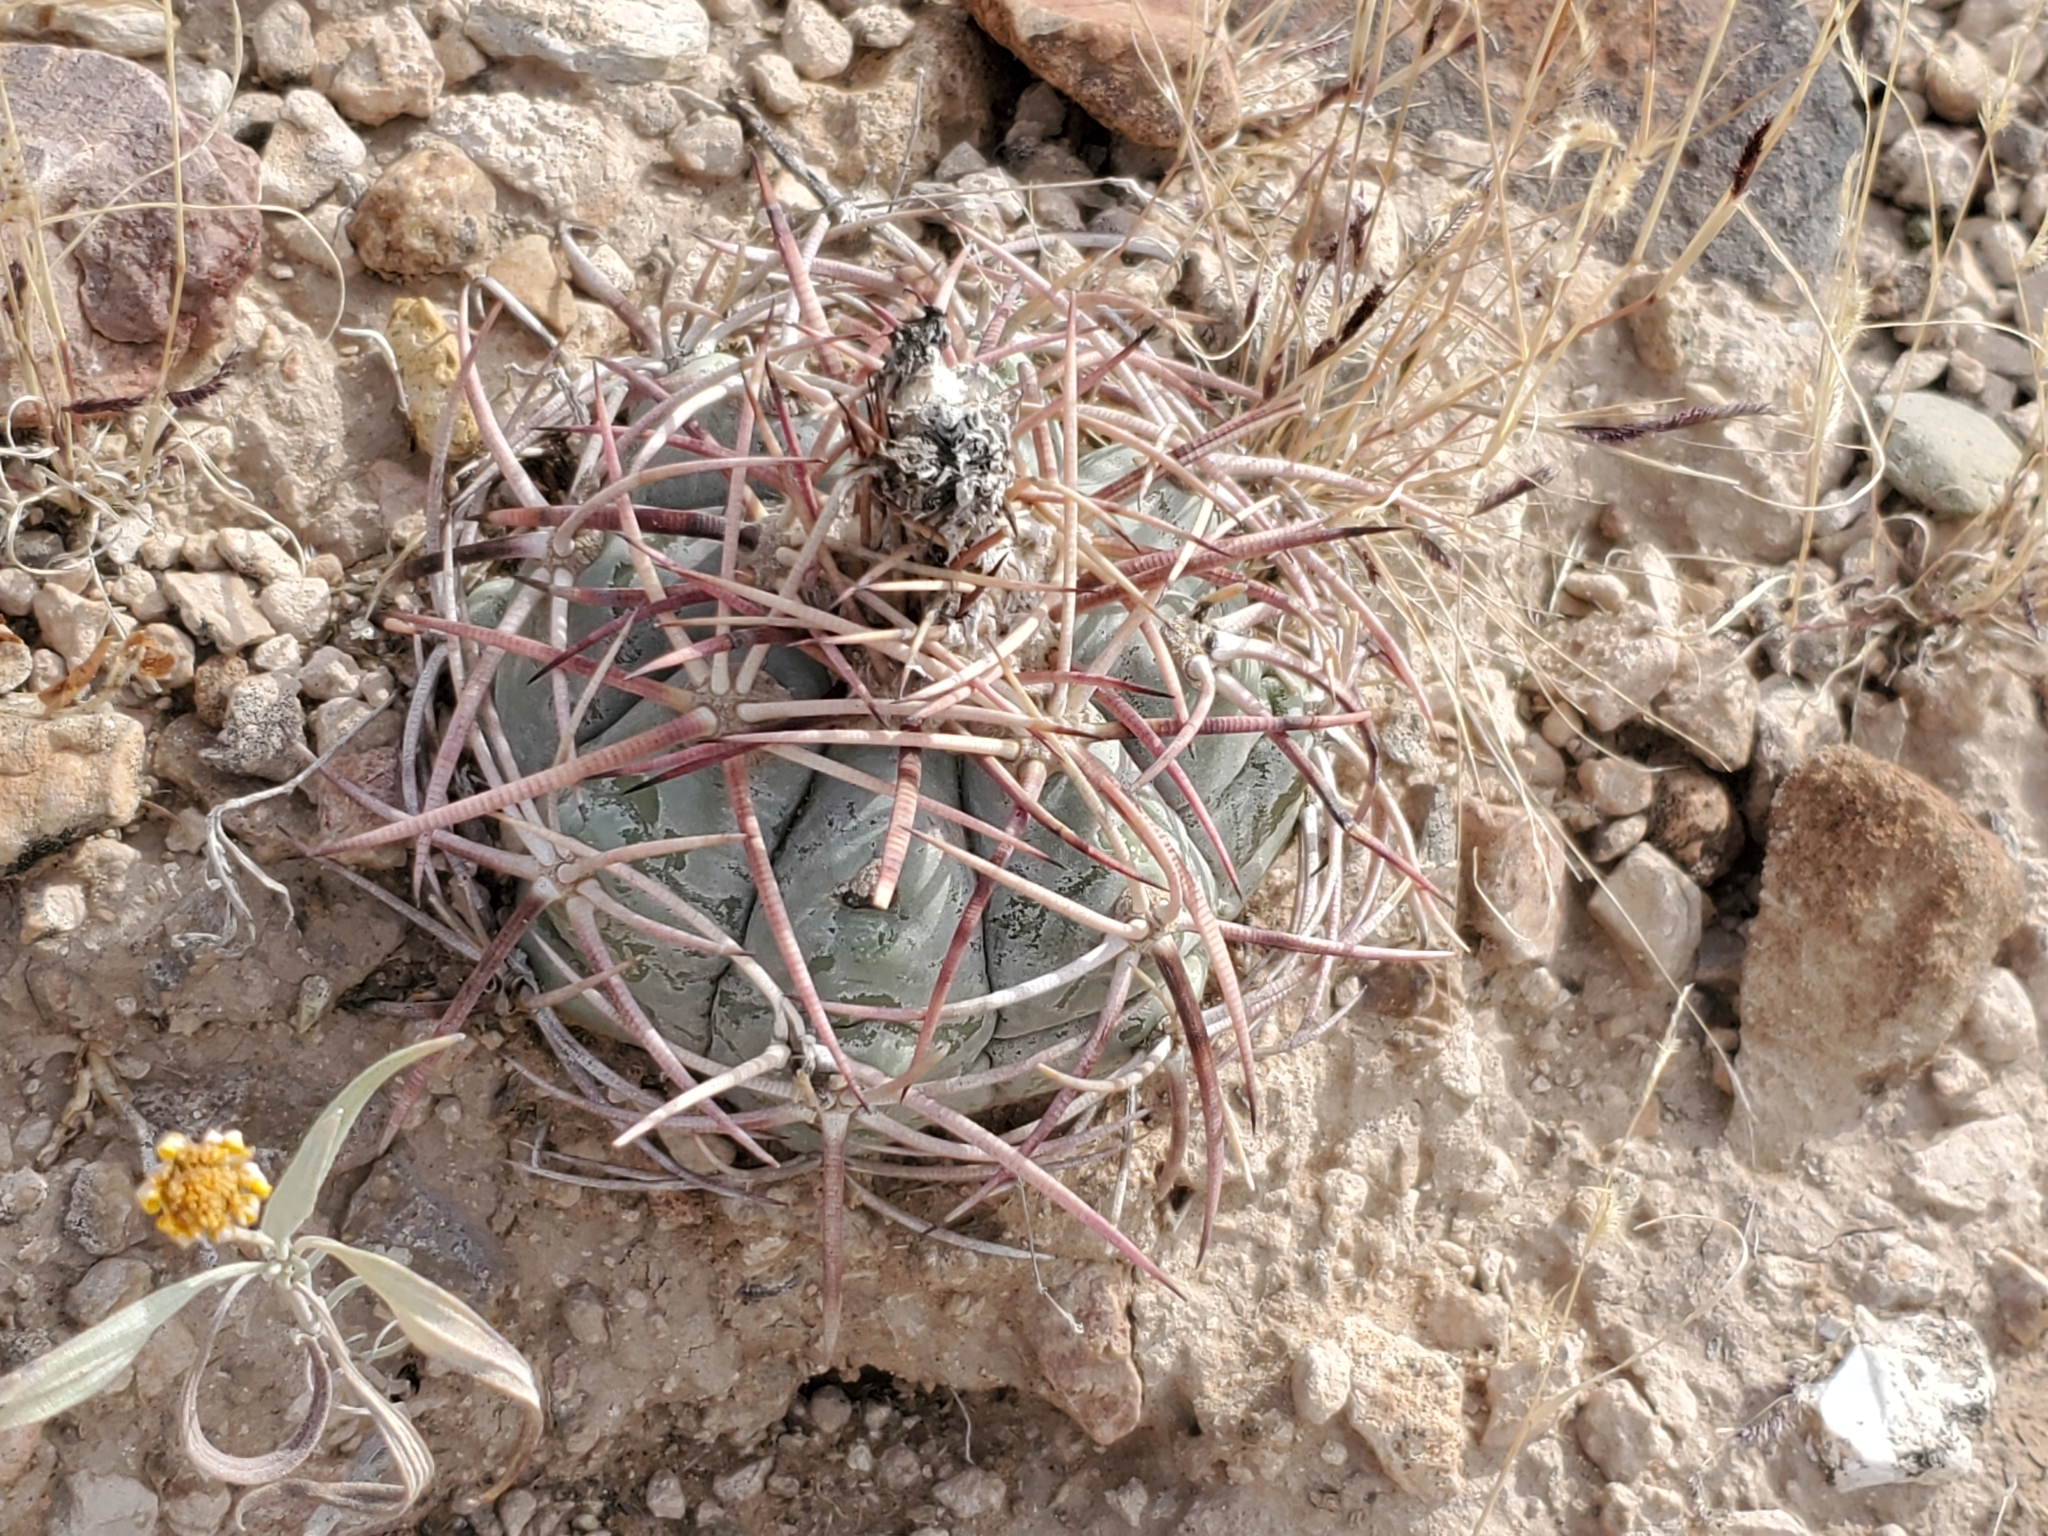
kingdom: Plantae
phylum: Tracheophyta
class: Magnoliopsida
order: Caryophyllales
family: Cactaceae
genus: Echinocactus
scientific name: Echinocactus horizonthalonius
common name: Devilshead
